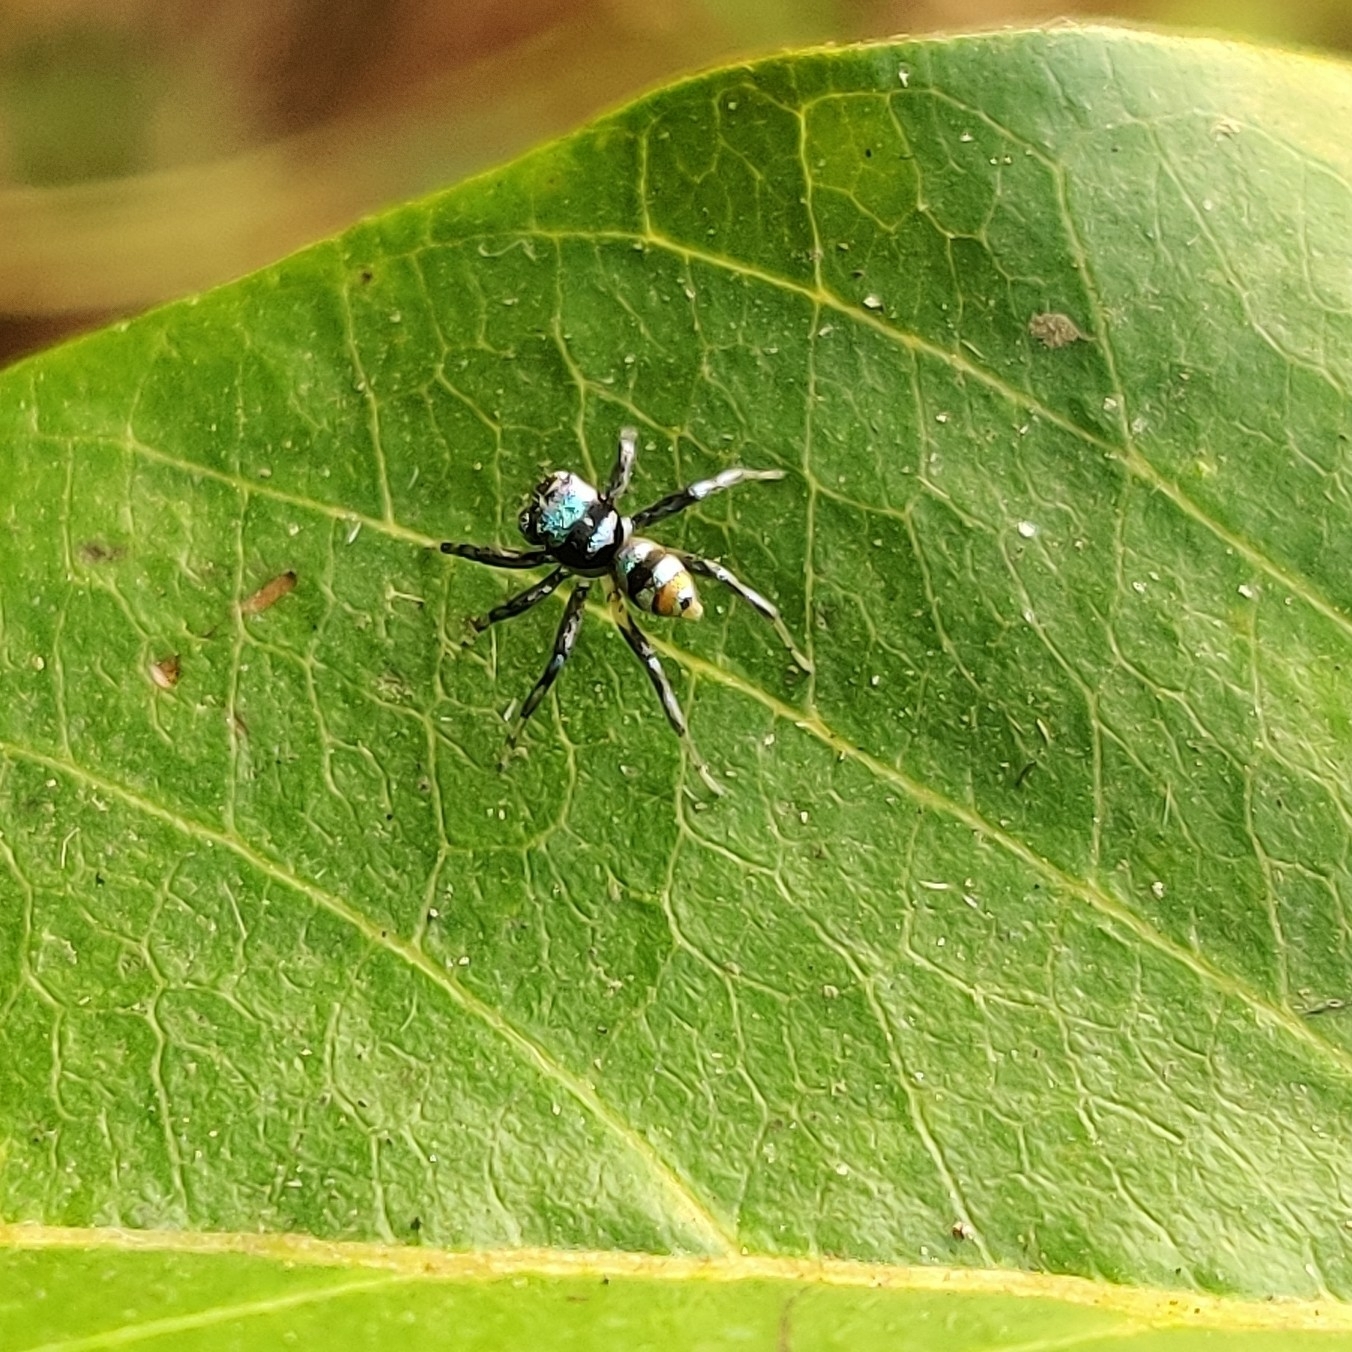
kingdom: Animalia
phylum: Arthropoda
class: Arachnida
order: Araneae
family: Salticidae
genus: Phintella
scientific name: Phintella vittata
